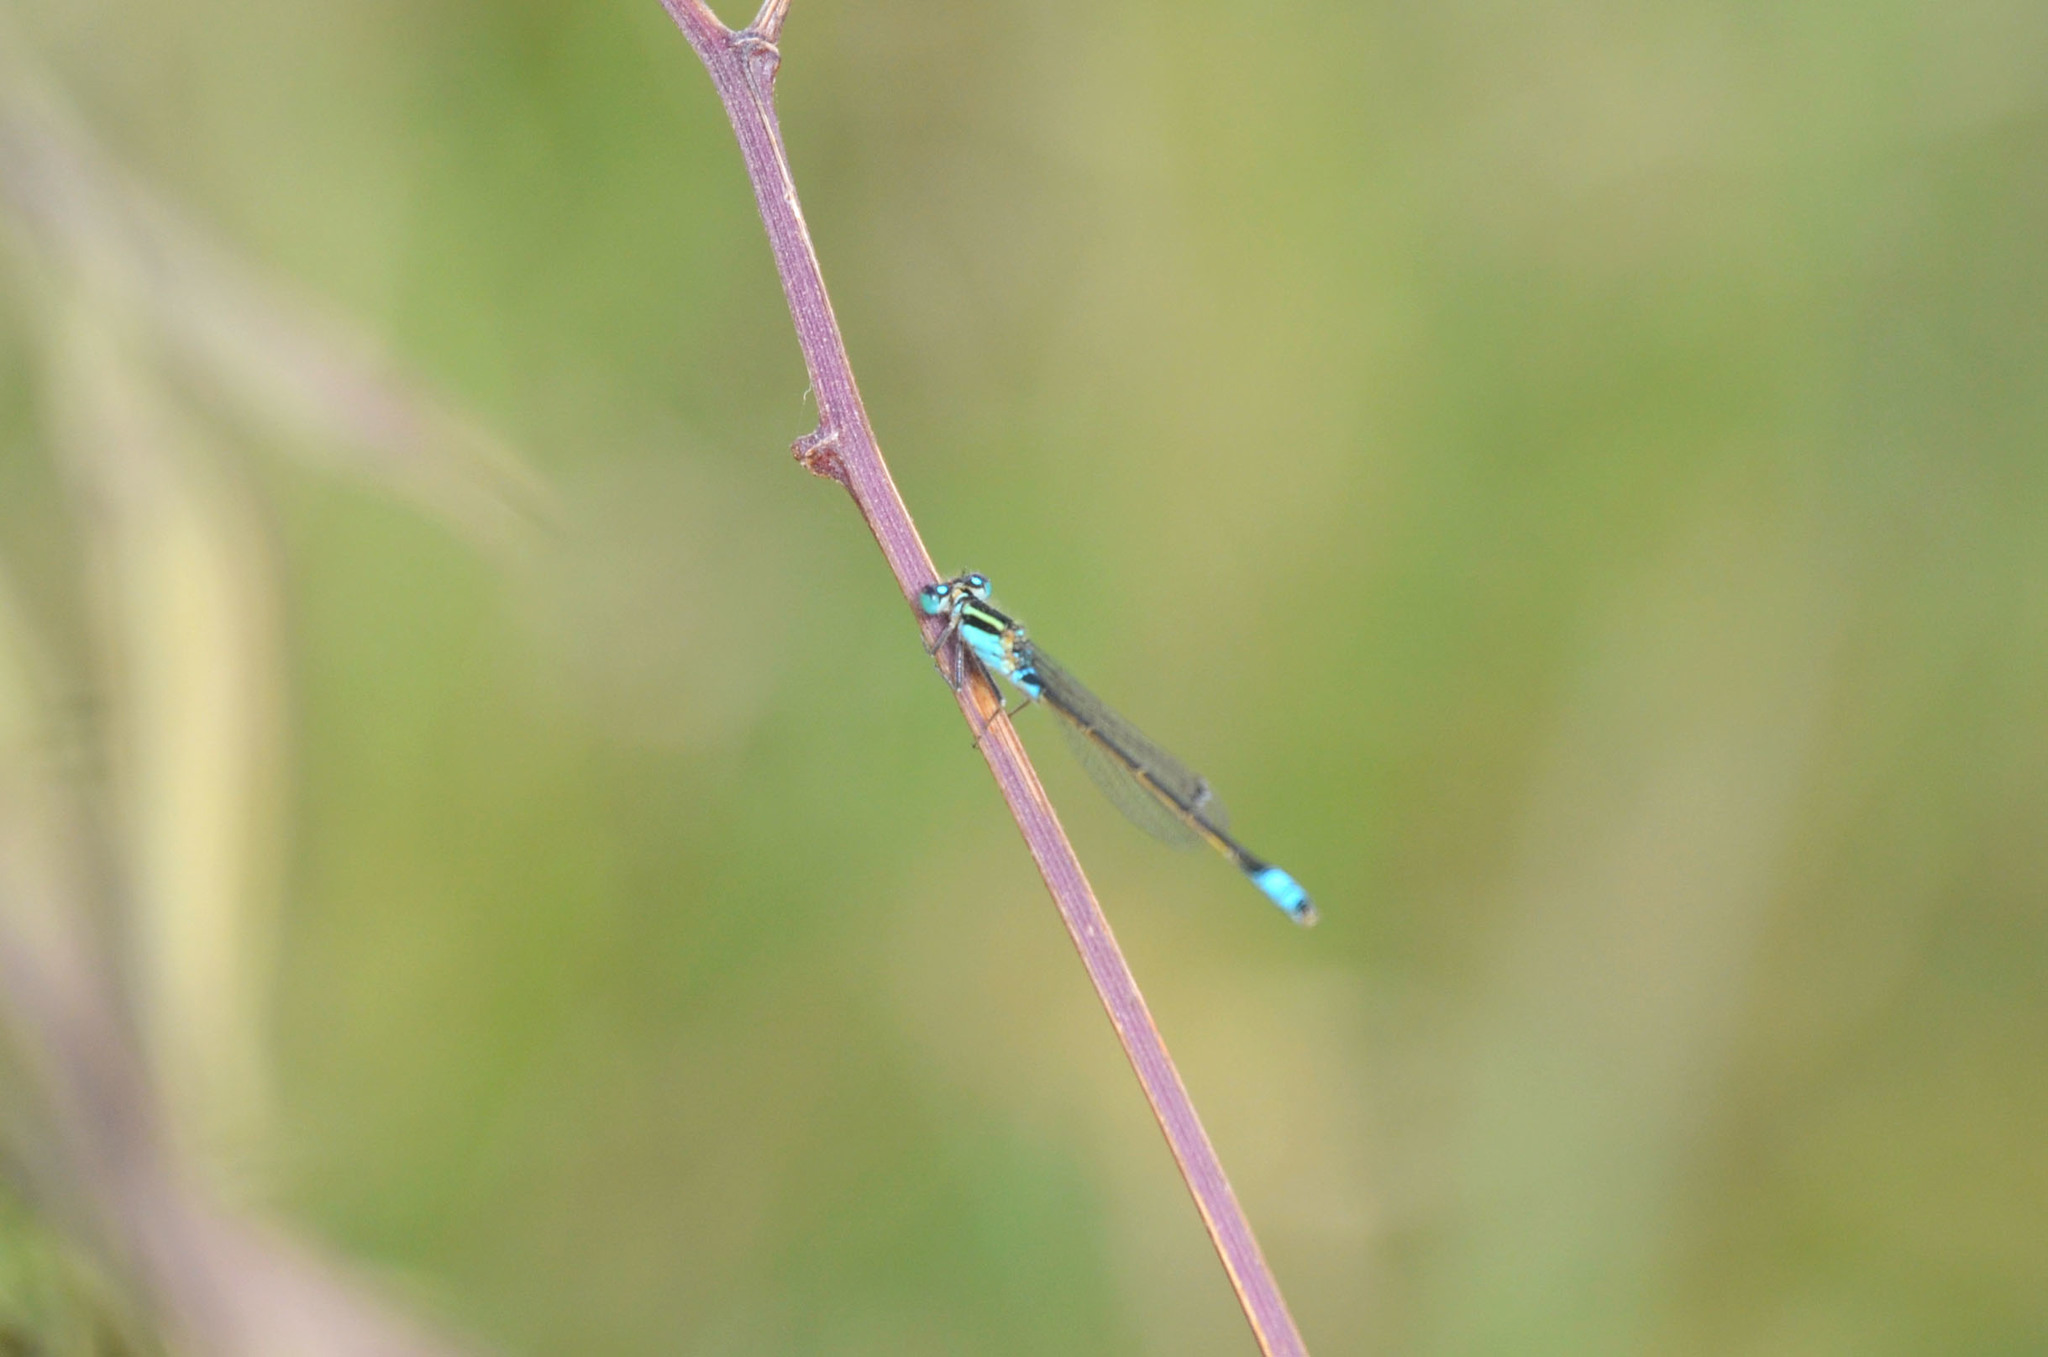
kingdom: Animalia
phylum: Arthropoda
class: Insecta
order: Odonata
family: Coenagrionidae
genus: Ischnura
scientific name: Ischnura fluviatilis
